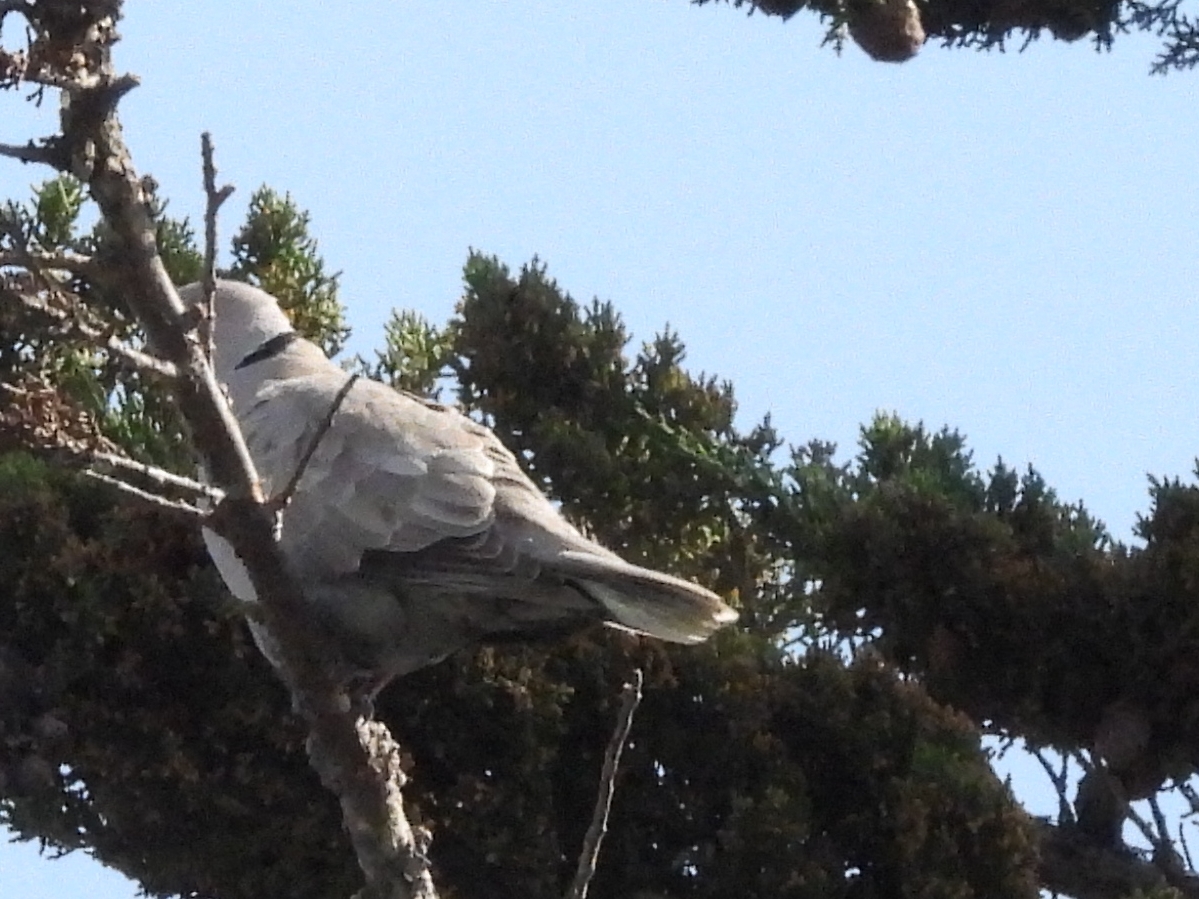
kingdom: Animalia
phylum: Chordata
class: Aves
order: Columbiformes
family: Columbidae
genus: Streptopelia
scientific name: Streptopelia decaocto
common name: Eurasian collared dove
